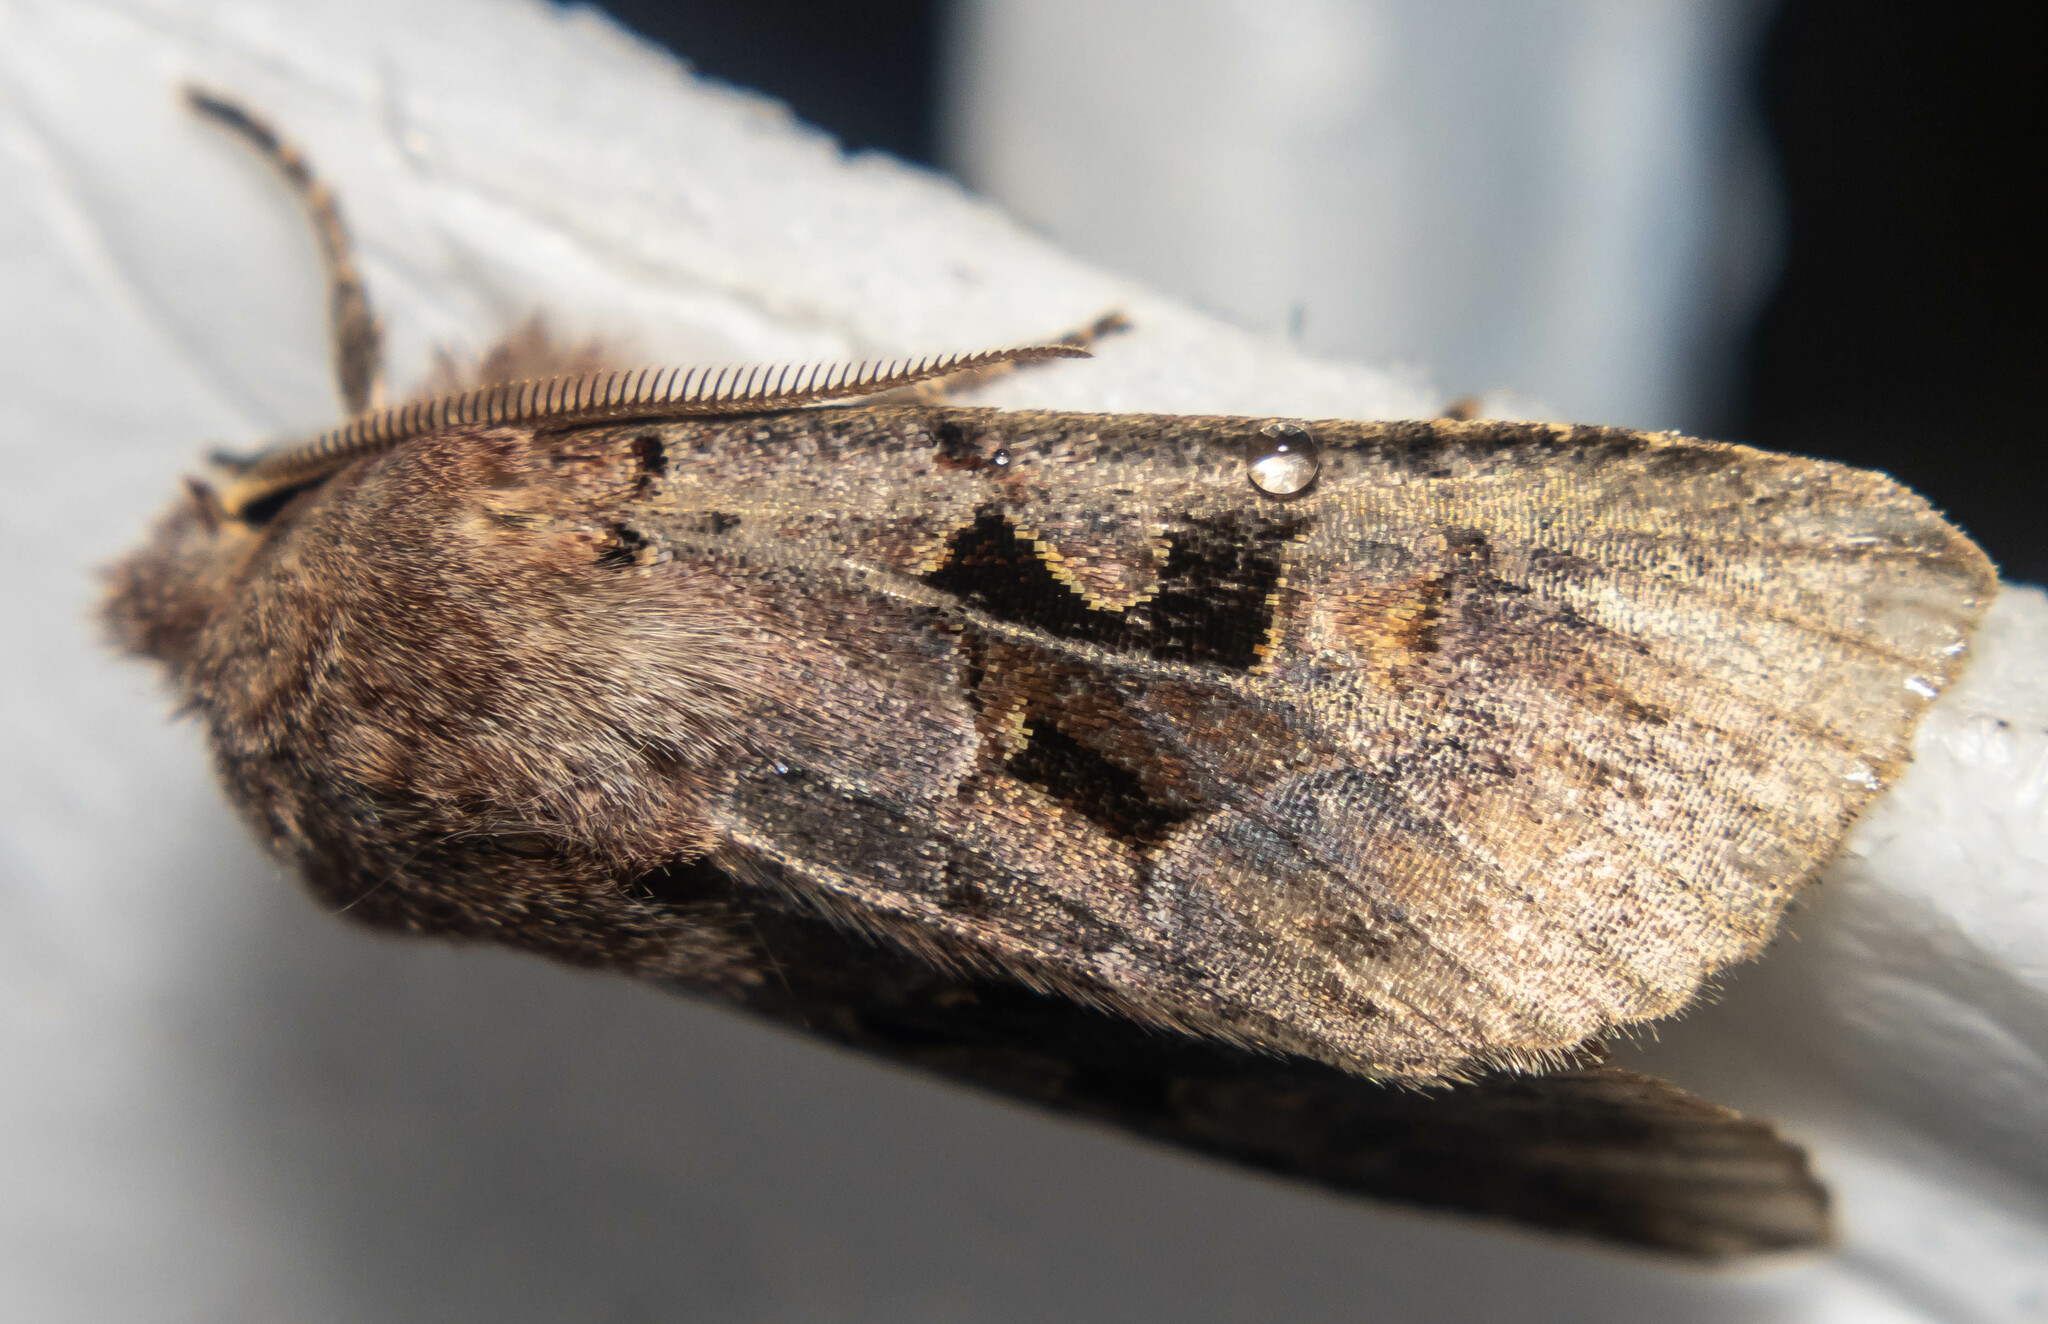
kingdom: Animalia
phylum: Arthropoda
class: Insecta
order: Lepidoptera
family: Noctuidae
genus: Orthosia
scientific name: Orthosia gothica
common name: Hebrew character
